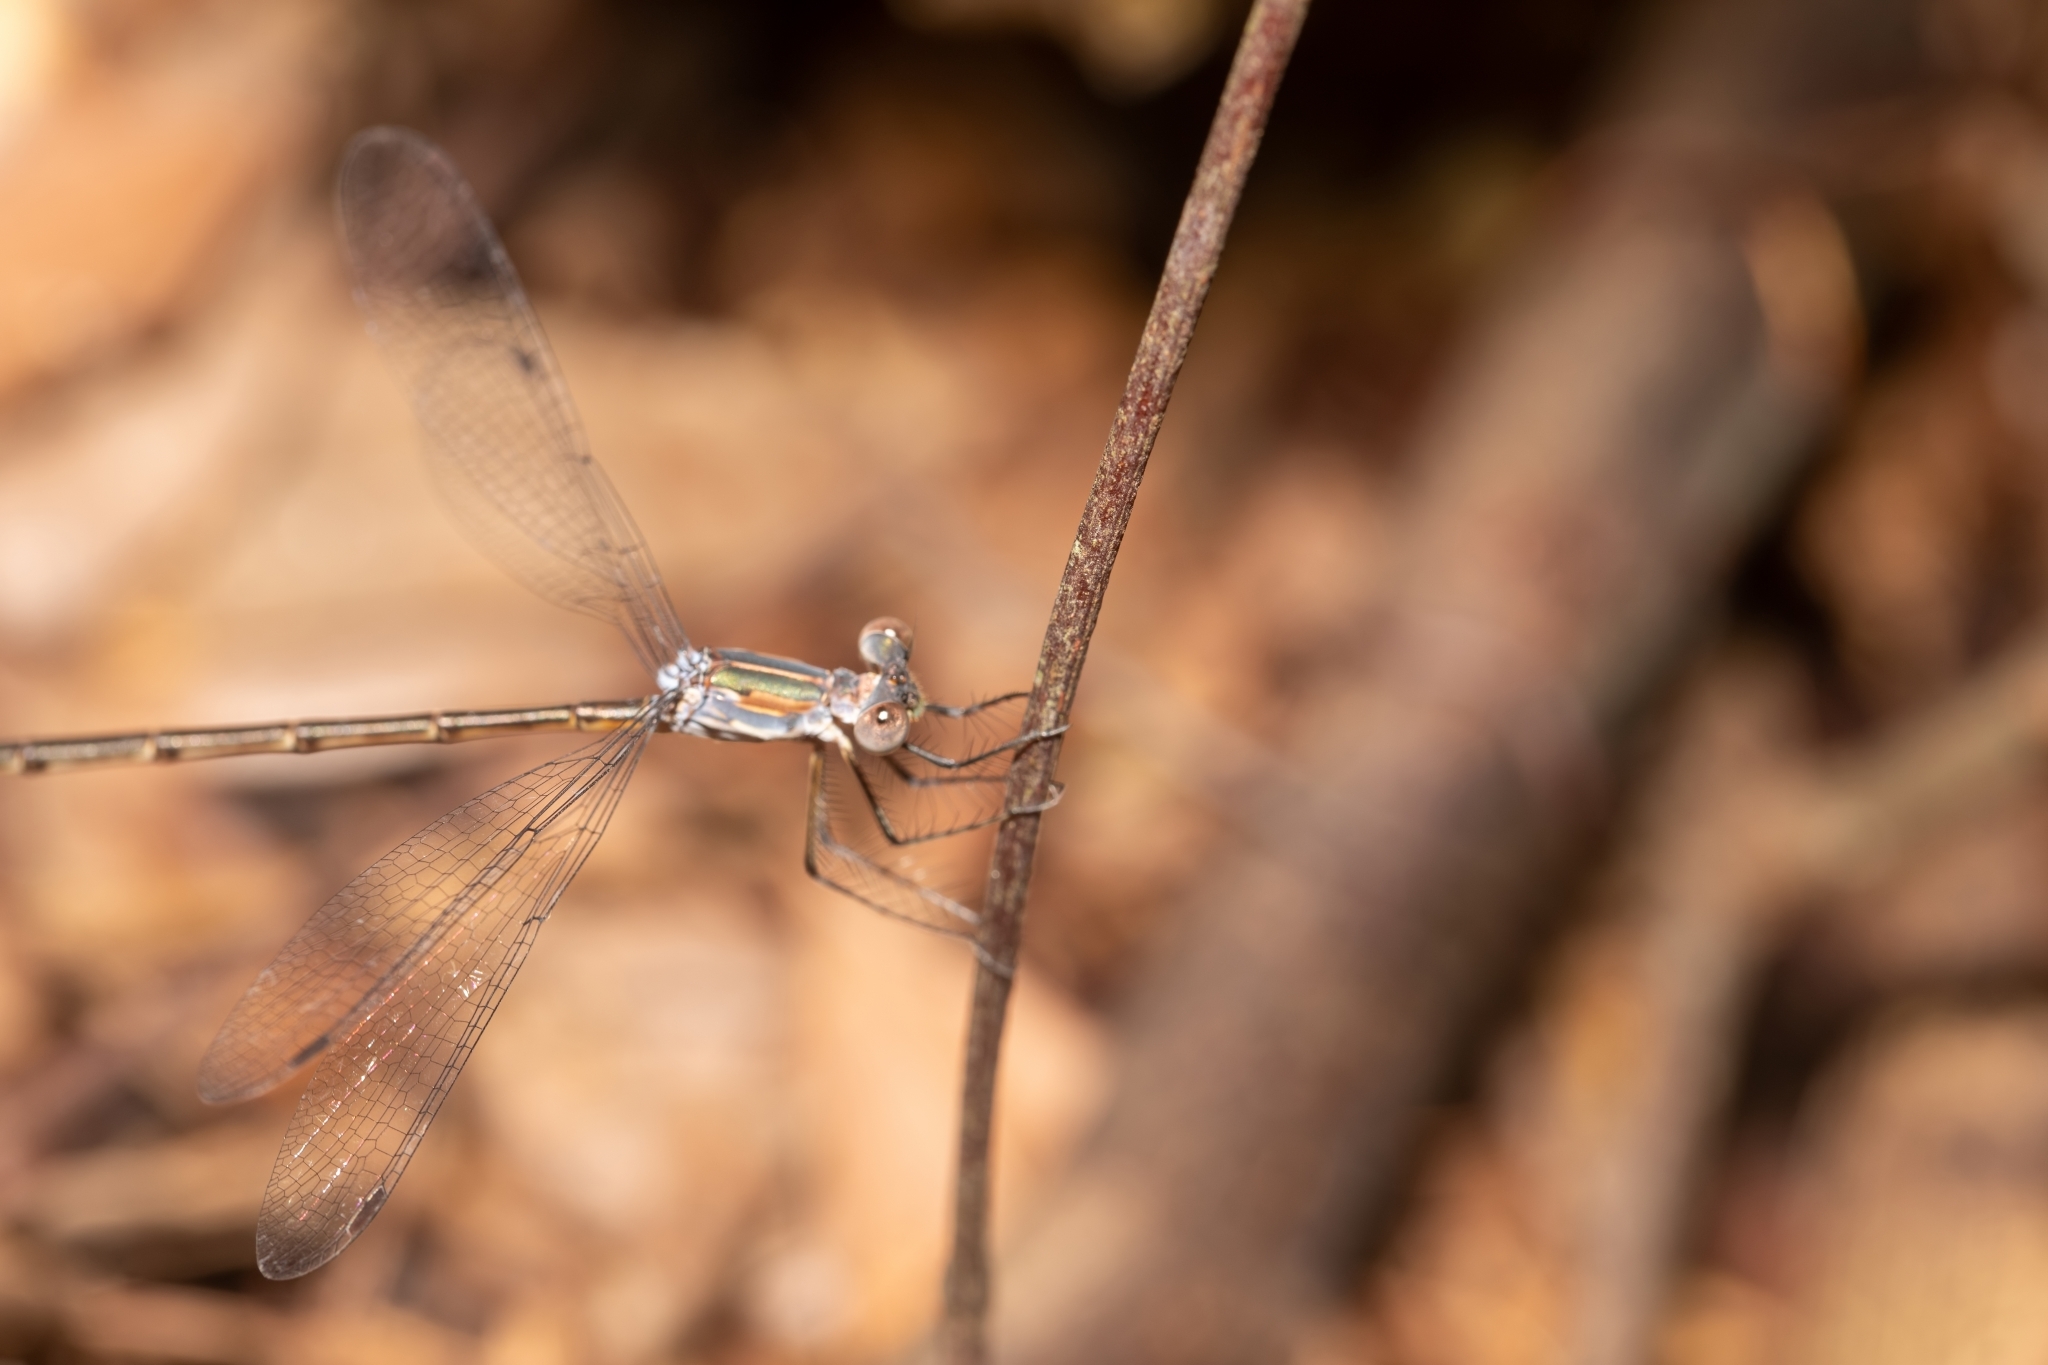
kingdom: Animalia
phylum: Arthropoda
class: Insecta
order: Odonata
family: Lestidae
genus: Lestes
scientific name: Lestes vidua
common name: Carolina spreadwing
